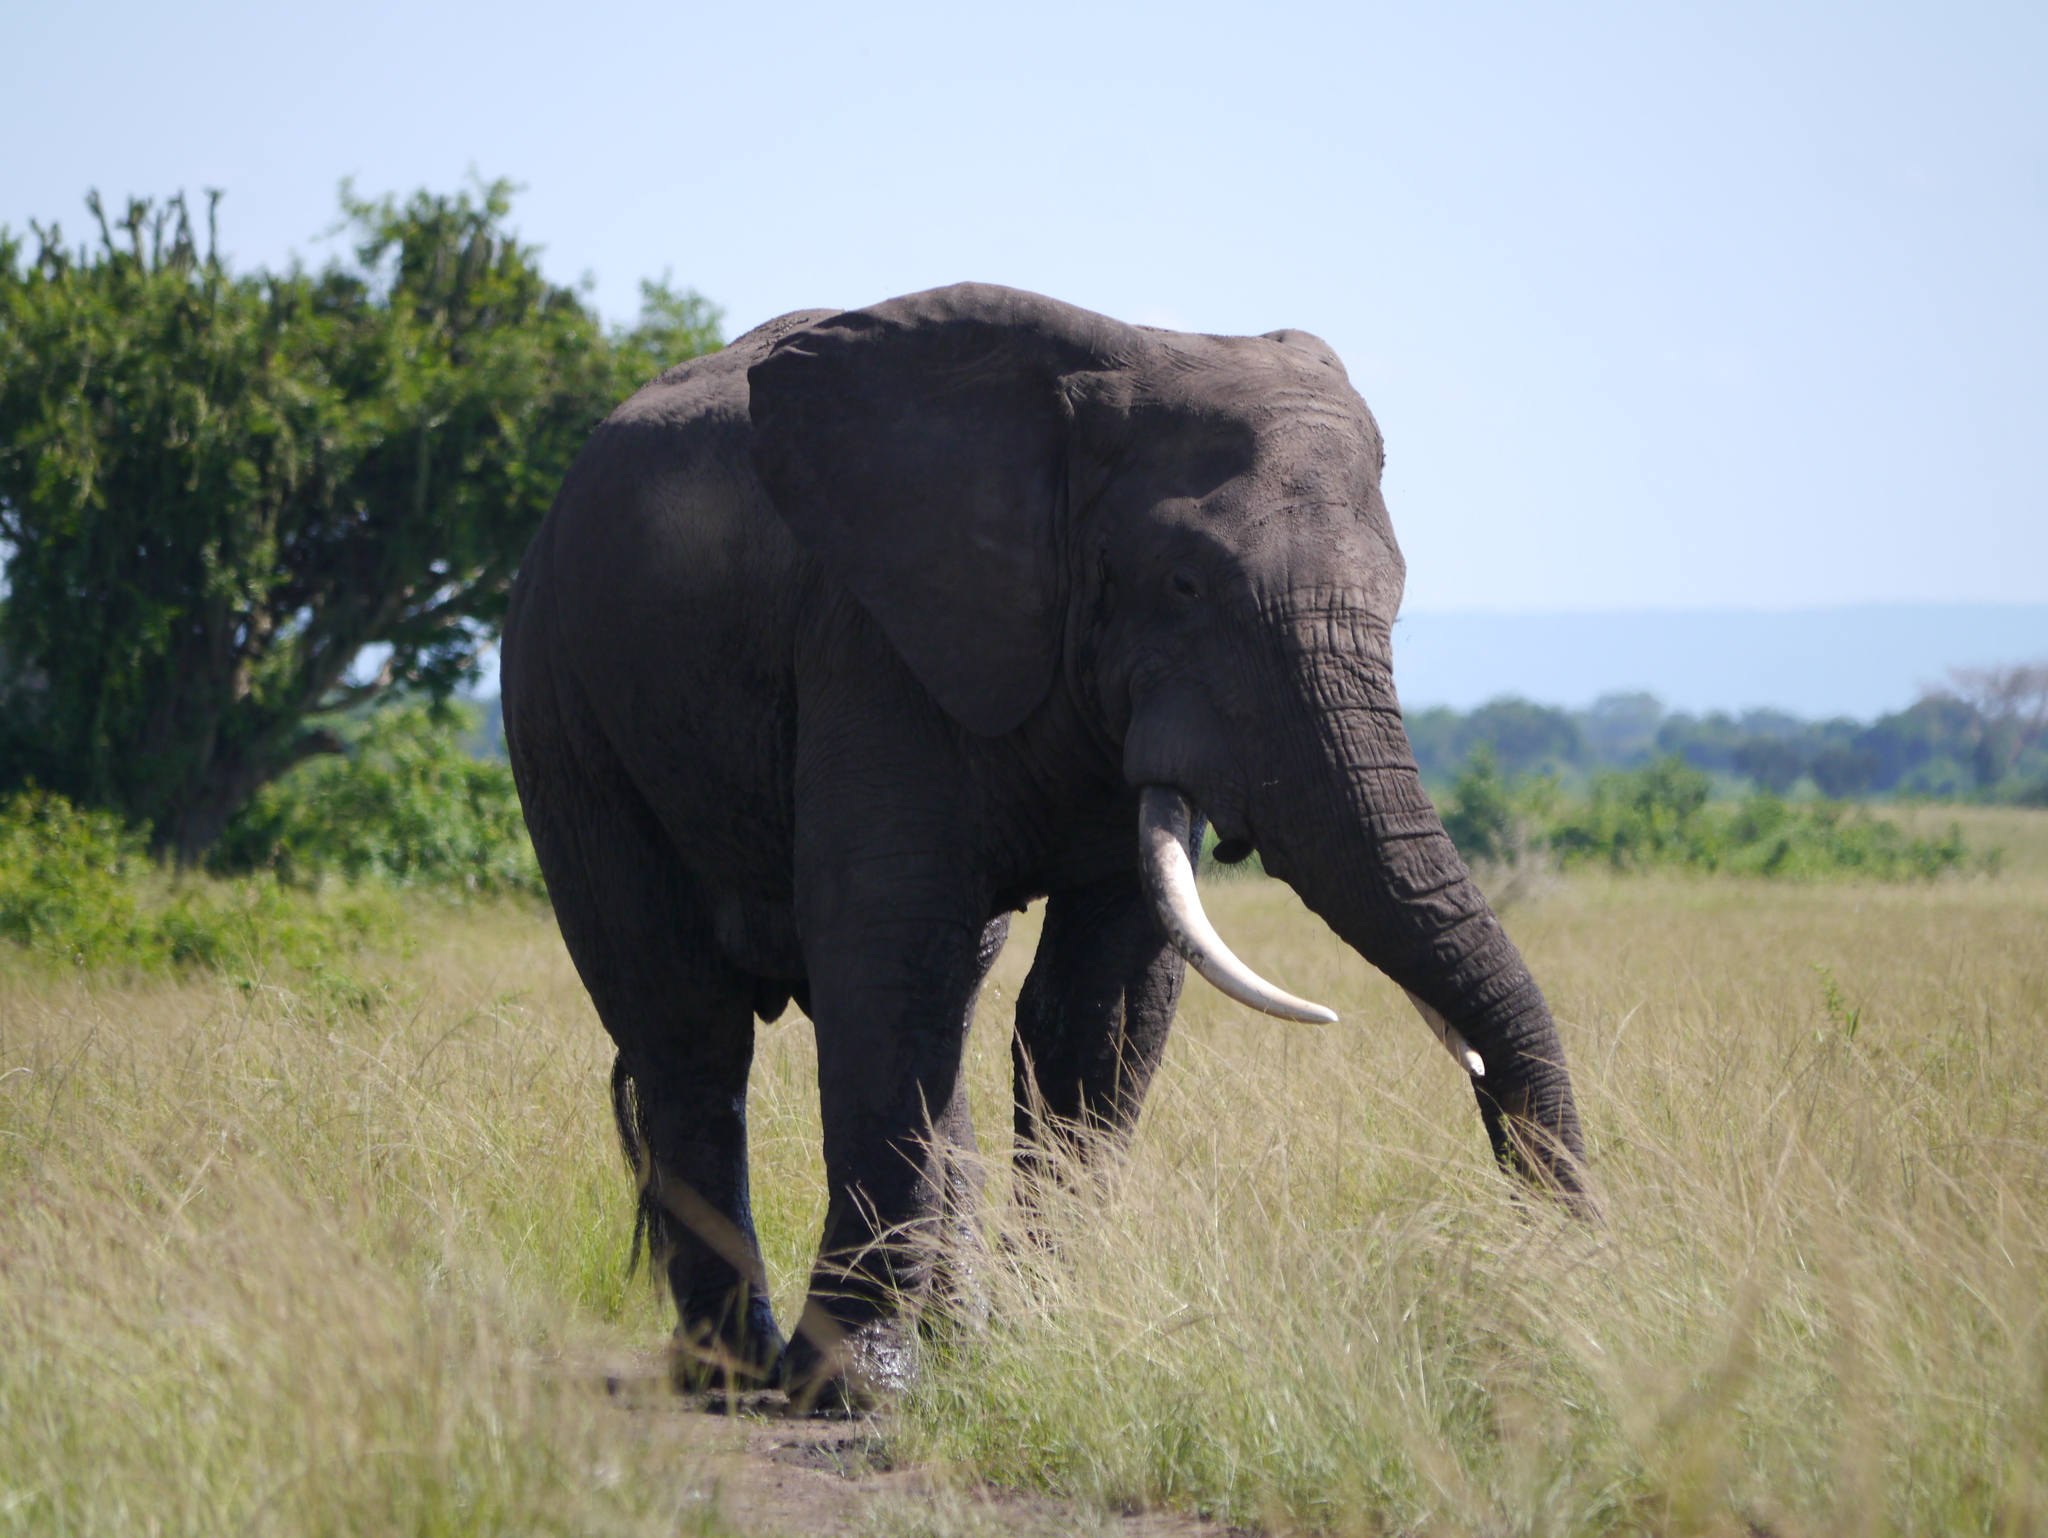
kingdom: Animalia
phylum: Chordata
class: Mammalia
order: Proboscidea
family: Elephantidae
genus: Loxodonta
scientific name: Loxodonta africana
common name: African elephant
